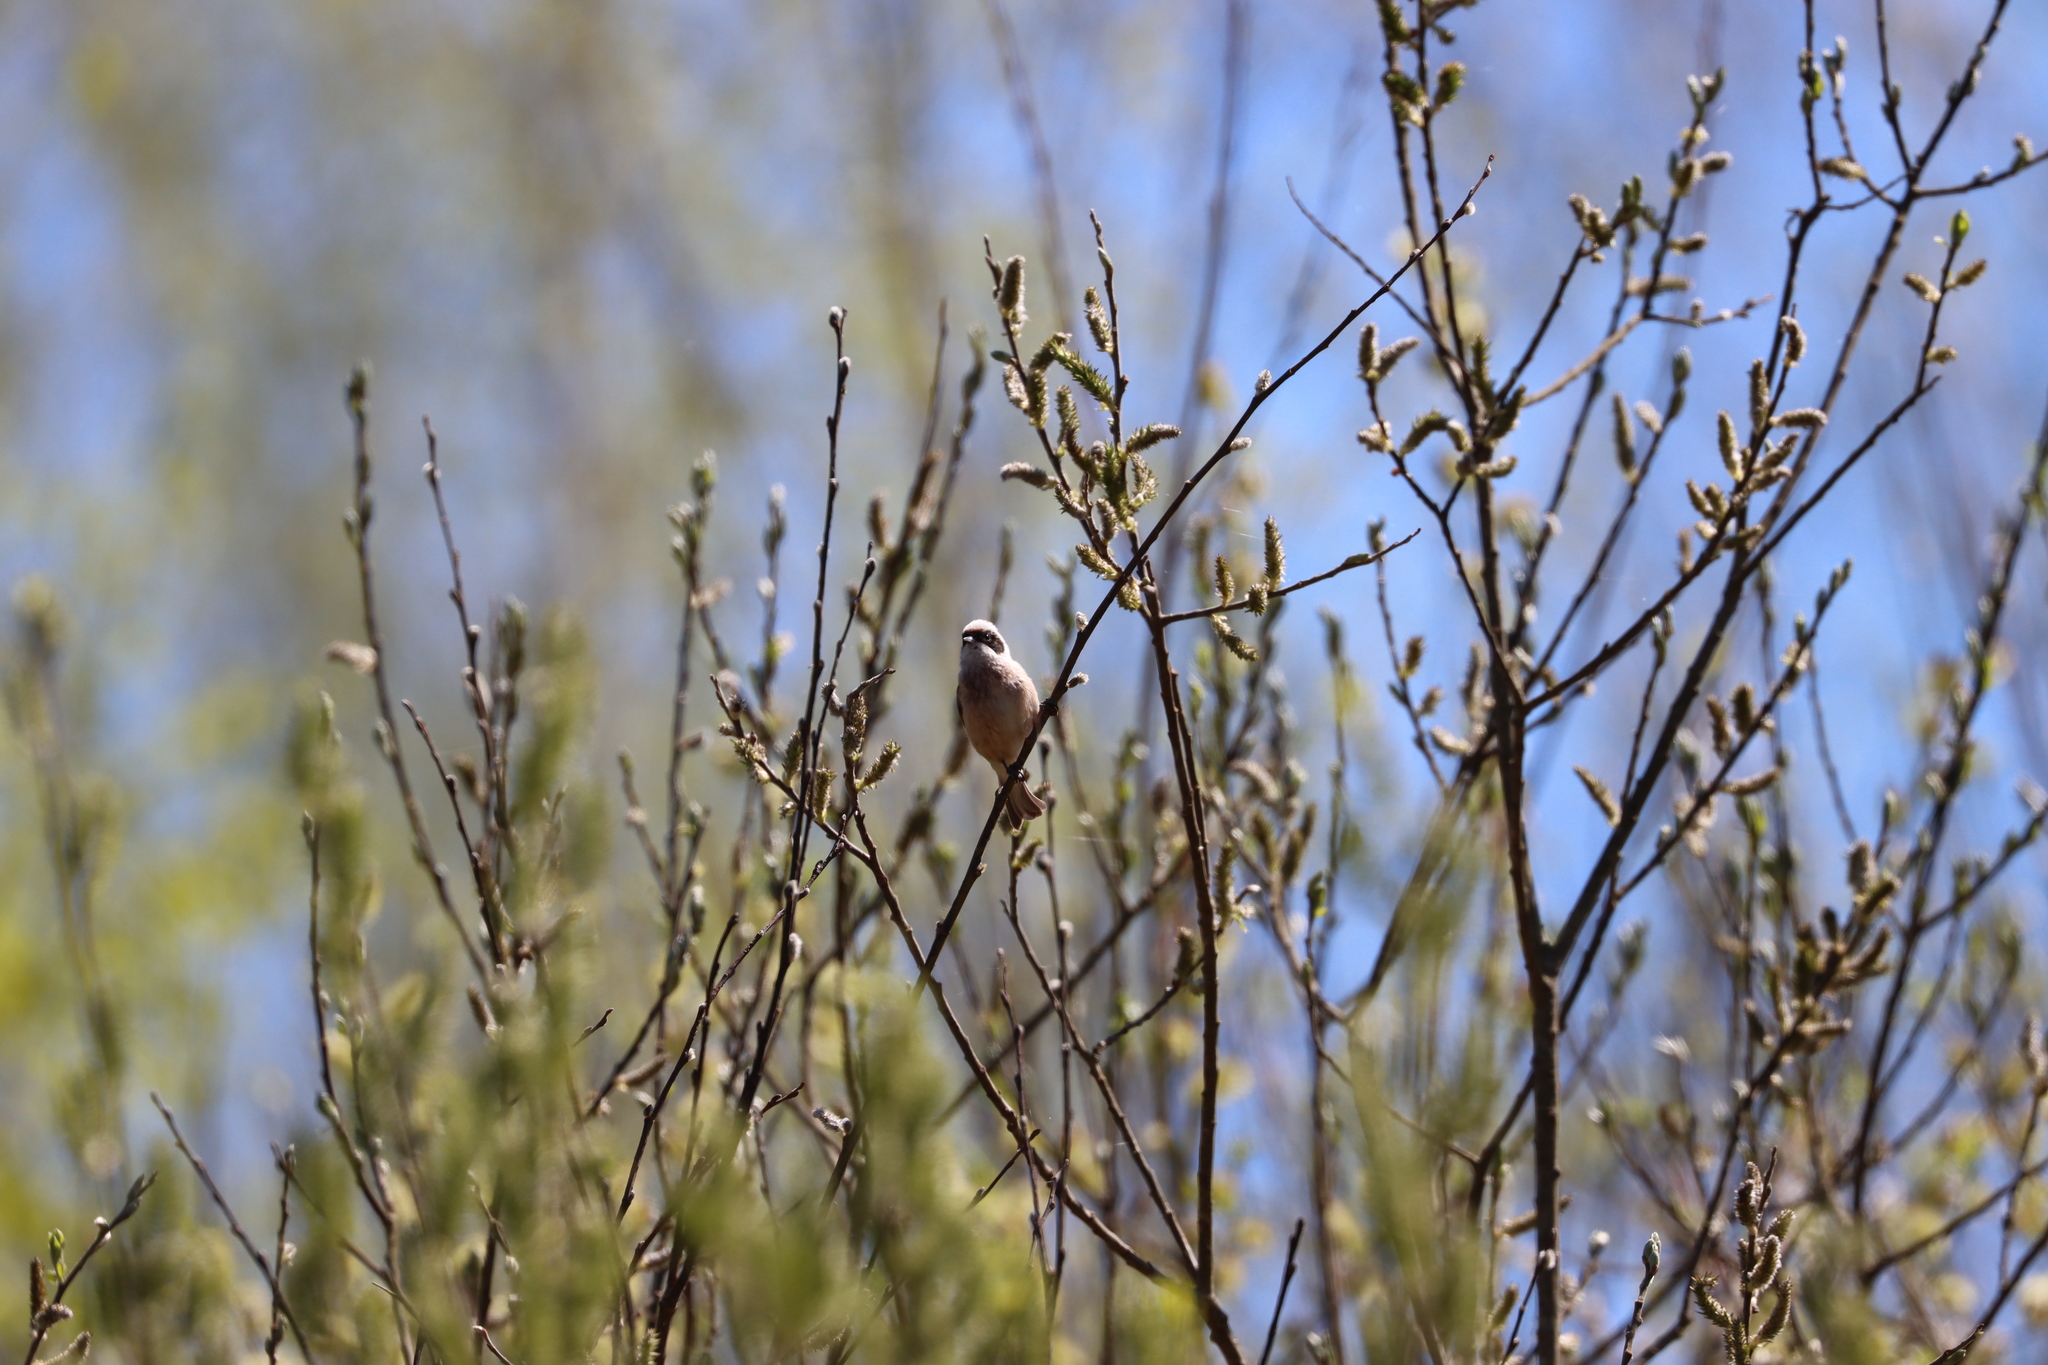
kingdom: Animalia
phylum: Chordata
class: Aves
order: Passeriformes
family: Remizidae
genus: Remiz
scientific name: Remiz pendulinus
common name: Eurasian penduline tit
